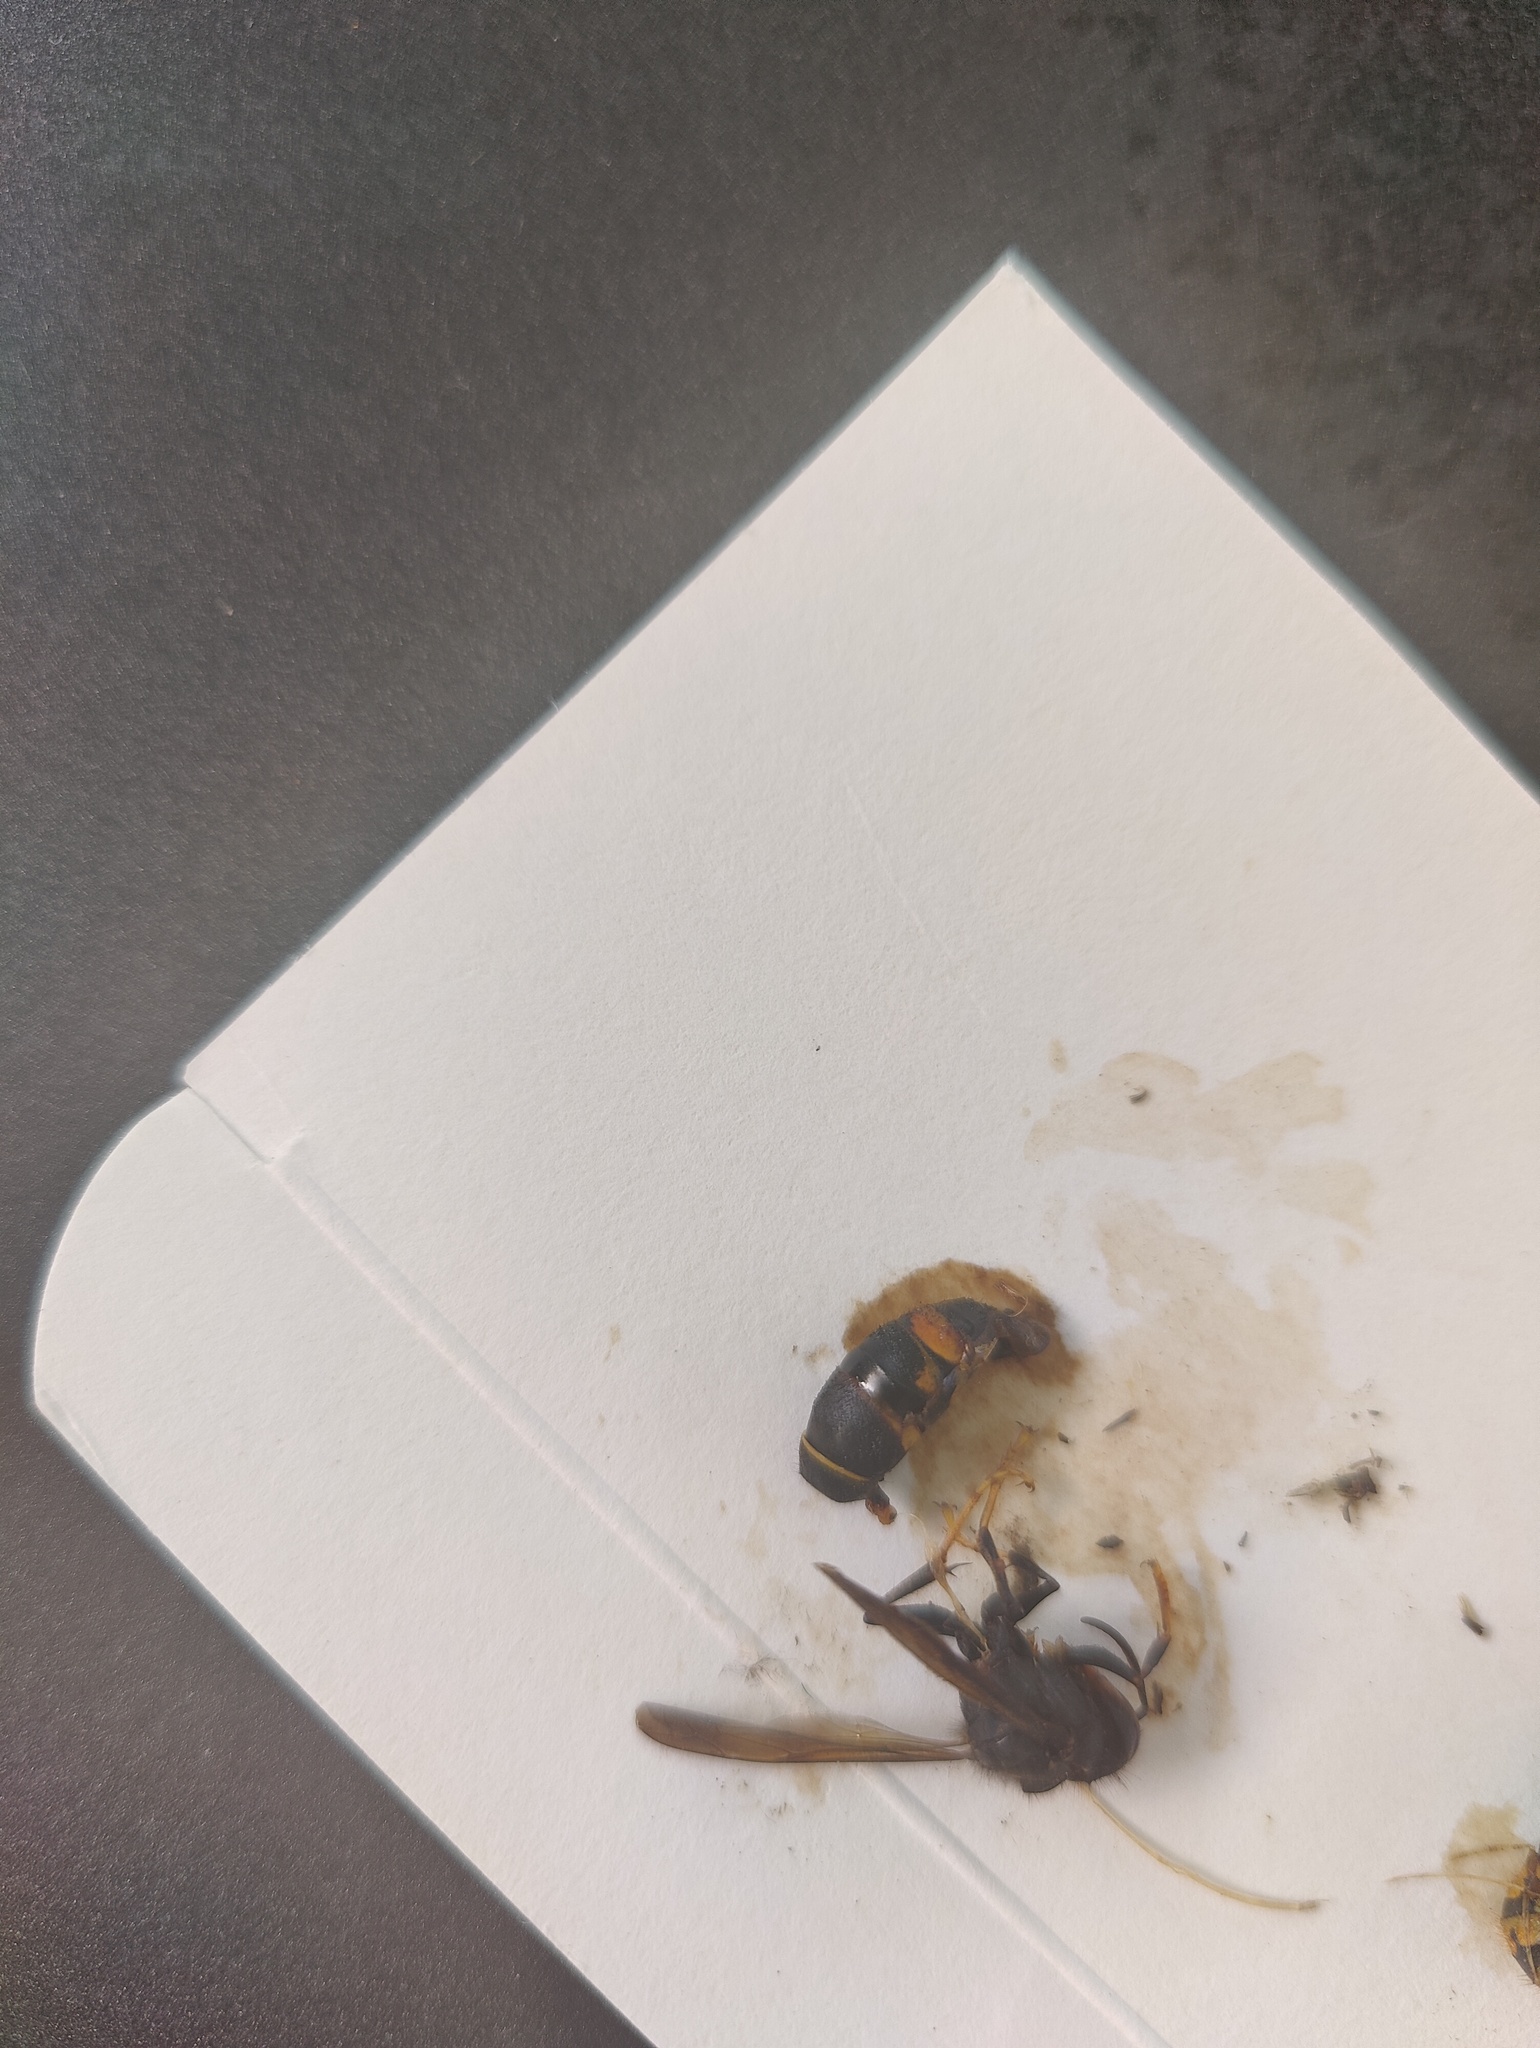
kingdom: Animalia
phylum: Arthropoda
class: Insecta
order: Hymenoptera
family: Vespidae
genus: Vespa
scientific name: Vespa velutina
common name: Asian hornet
